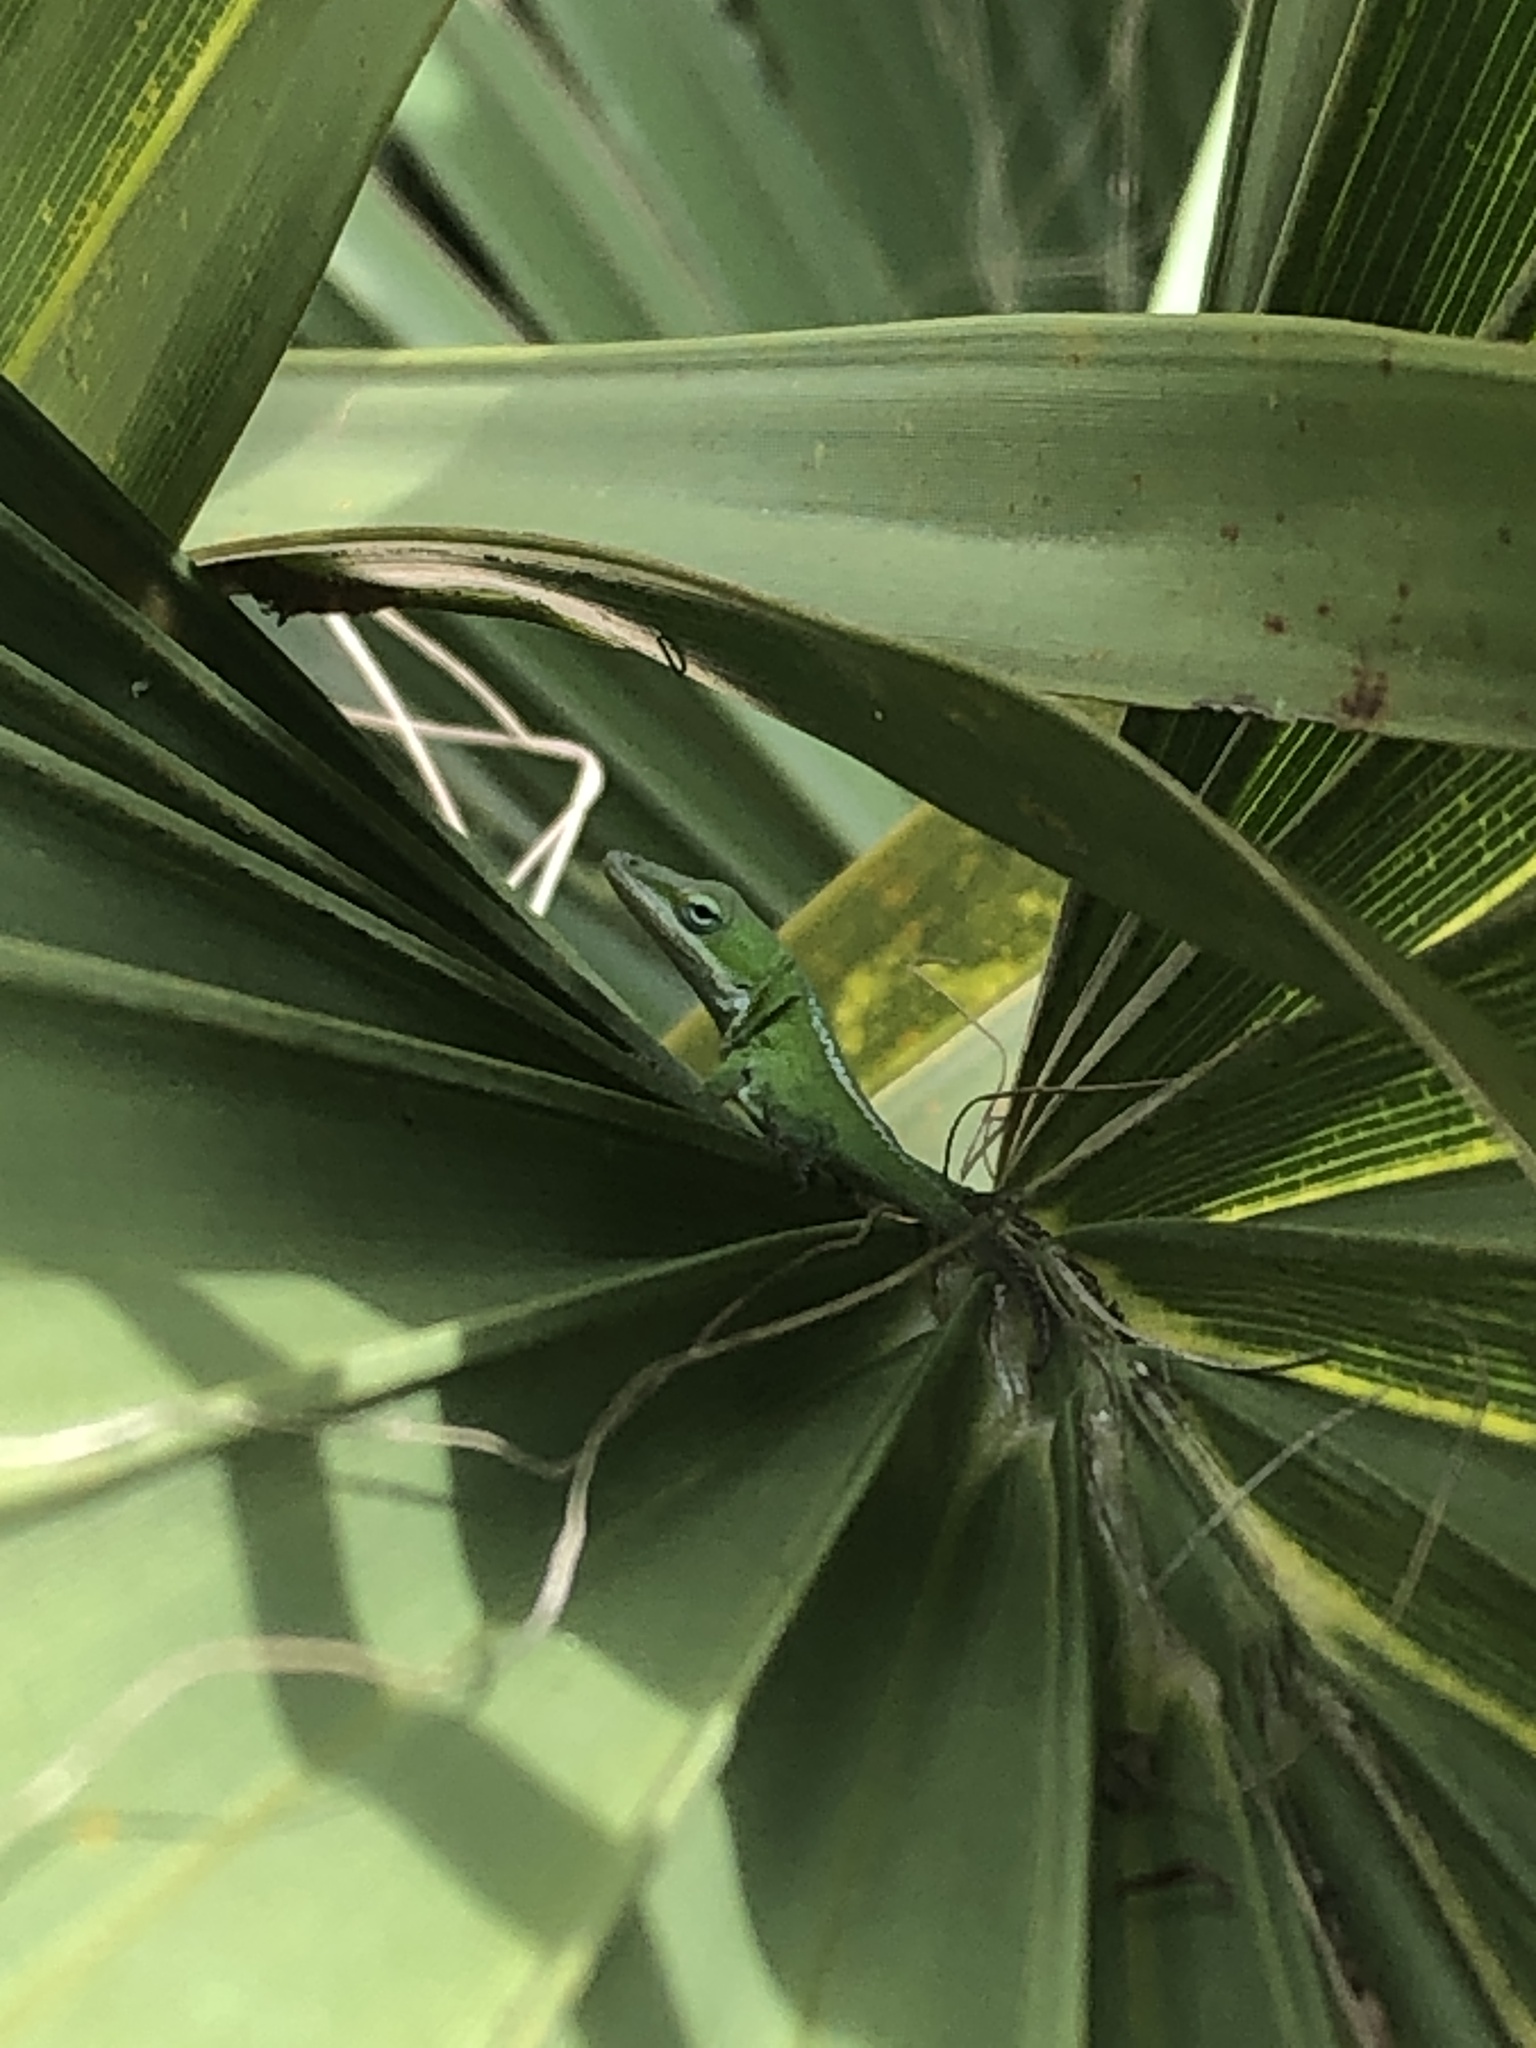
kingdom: Animalia
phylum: Chordata
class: Squamata
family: Dactyloidae
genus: Anolis
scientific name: Anolis carolinensis
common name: Green anole
